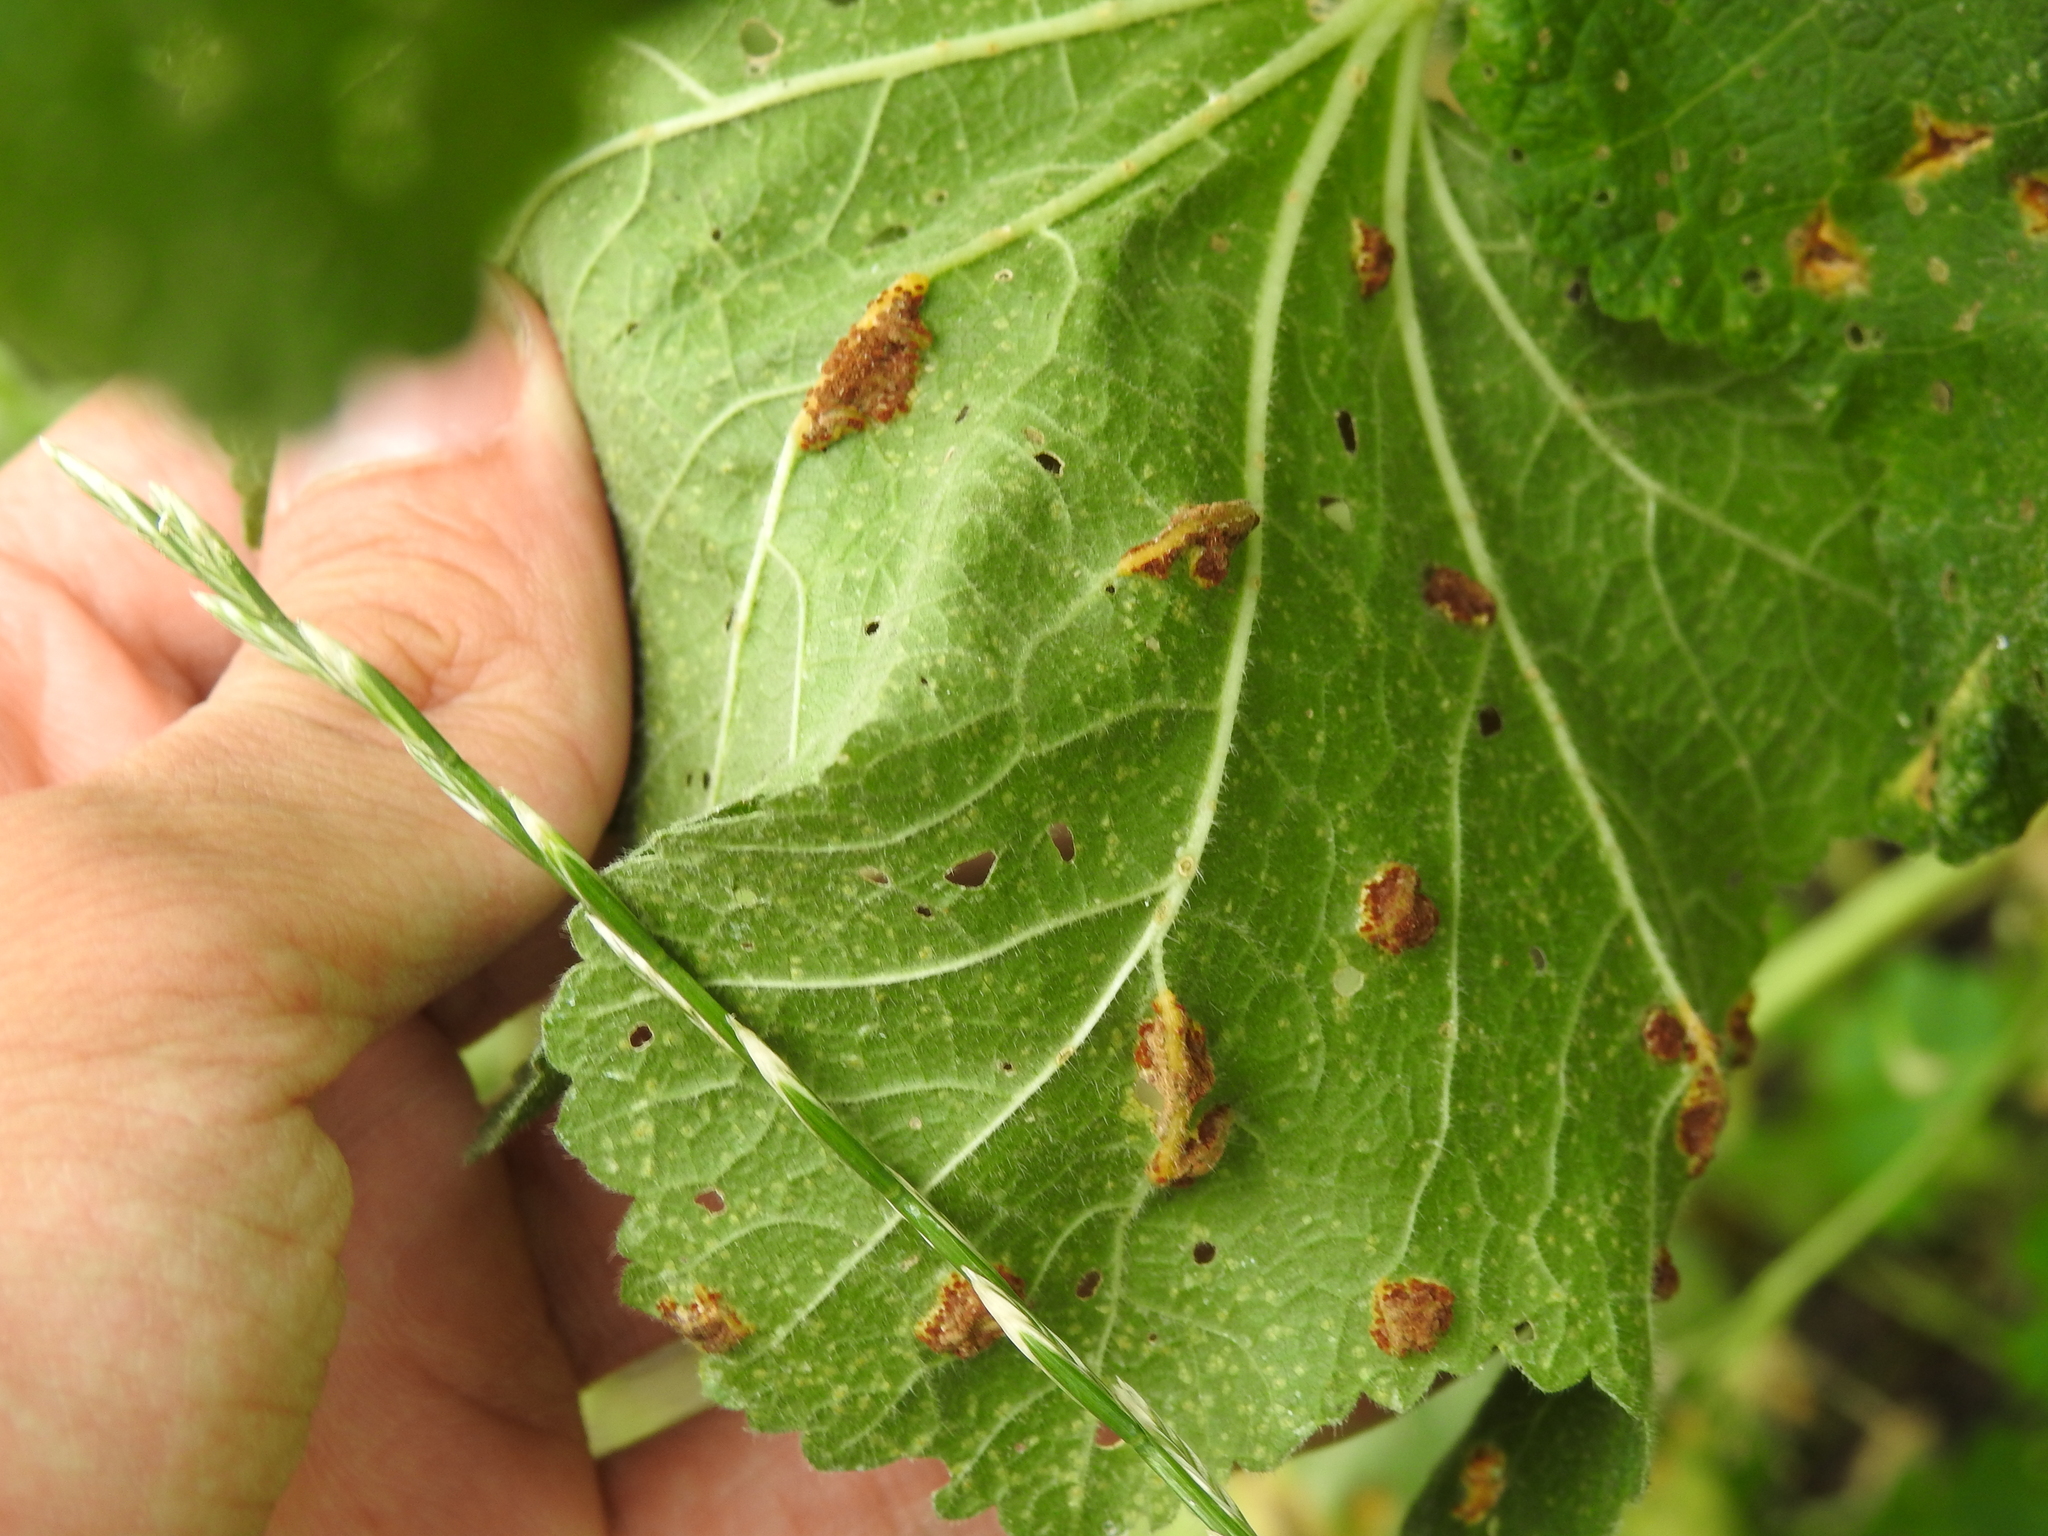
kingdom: Fungi
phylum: Basidiomycota
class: Pucciniomycetes
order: Pucciniales
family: Pucciniaceae
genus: Puccinia
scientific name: Puccinia malvacearum
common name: Hollyhock rust
